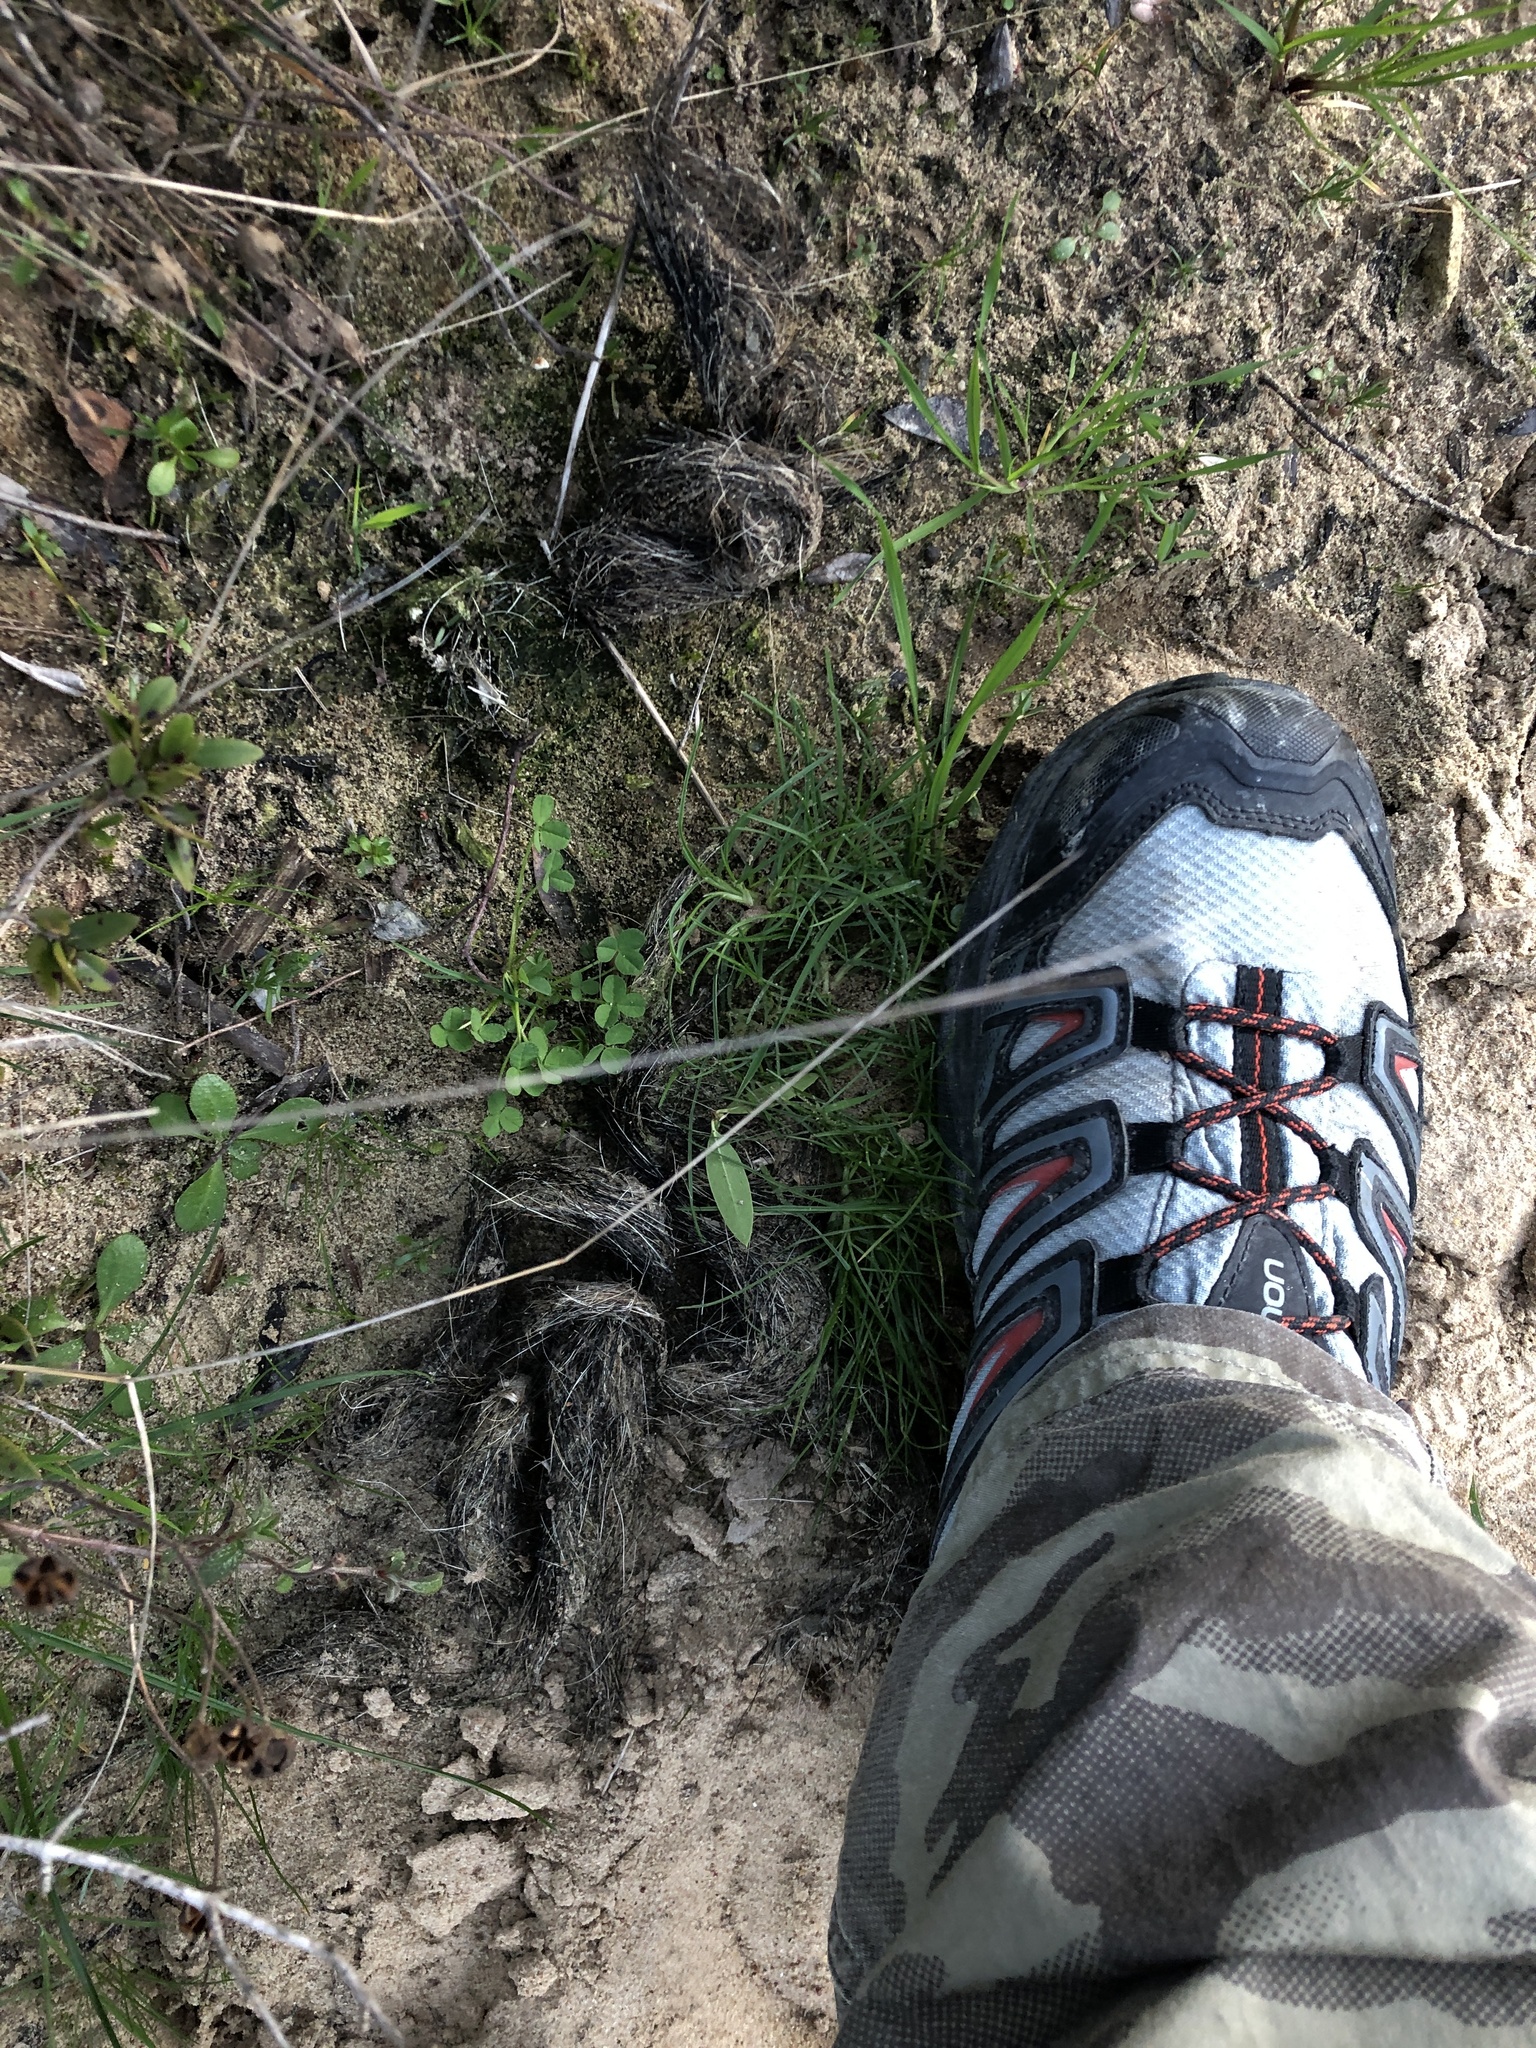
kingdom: Animalia
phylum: Chordata
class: Mammalia
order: Carnivora
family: Canidae
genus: Canis
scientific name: Canis lupus
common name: Gray wolf
